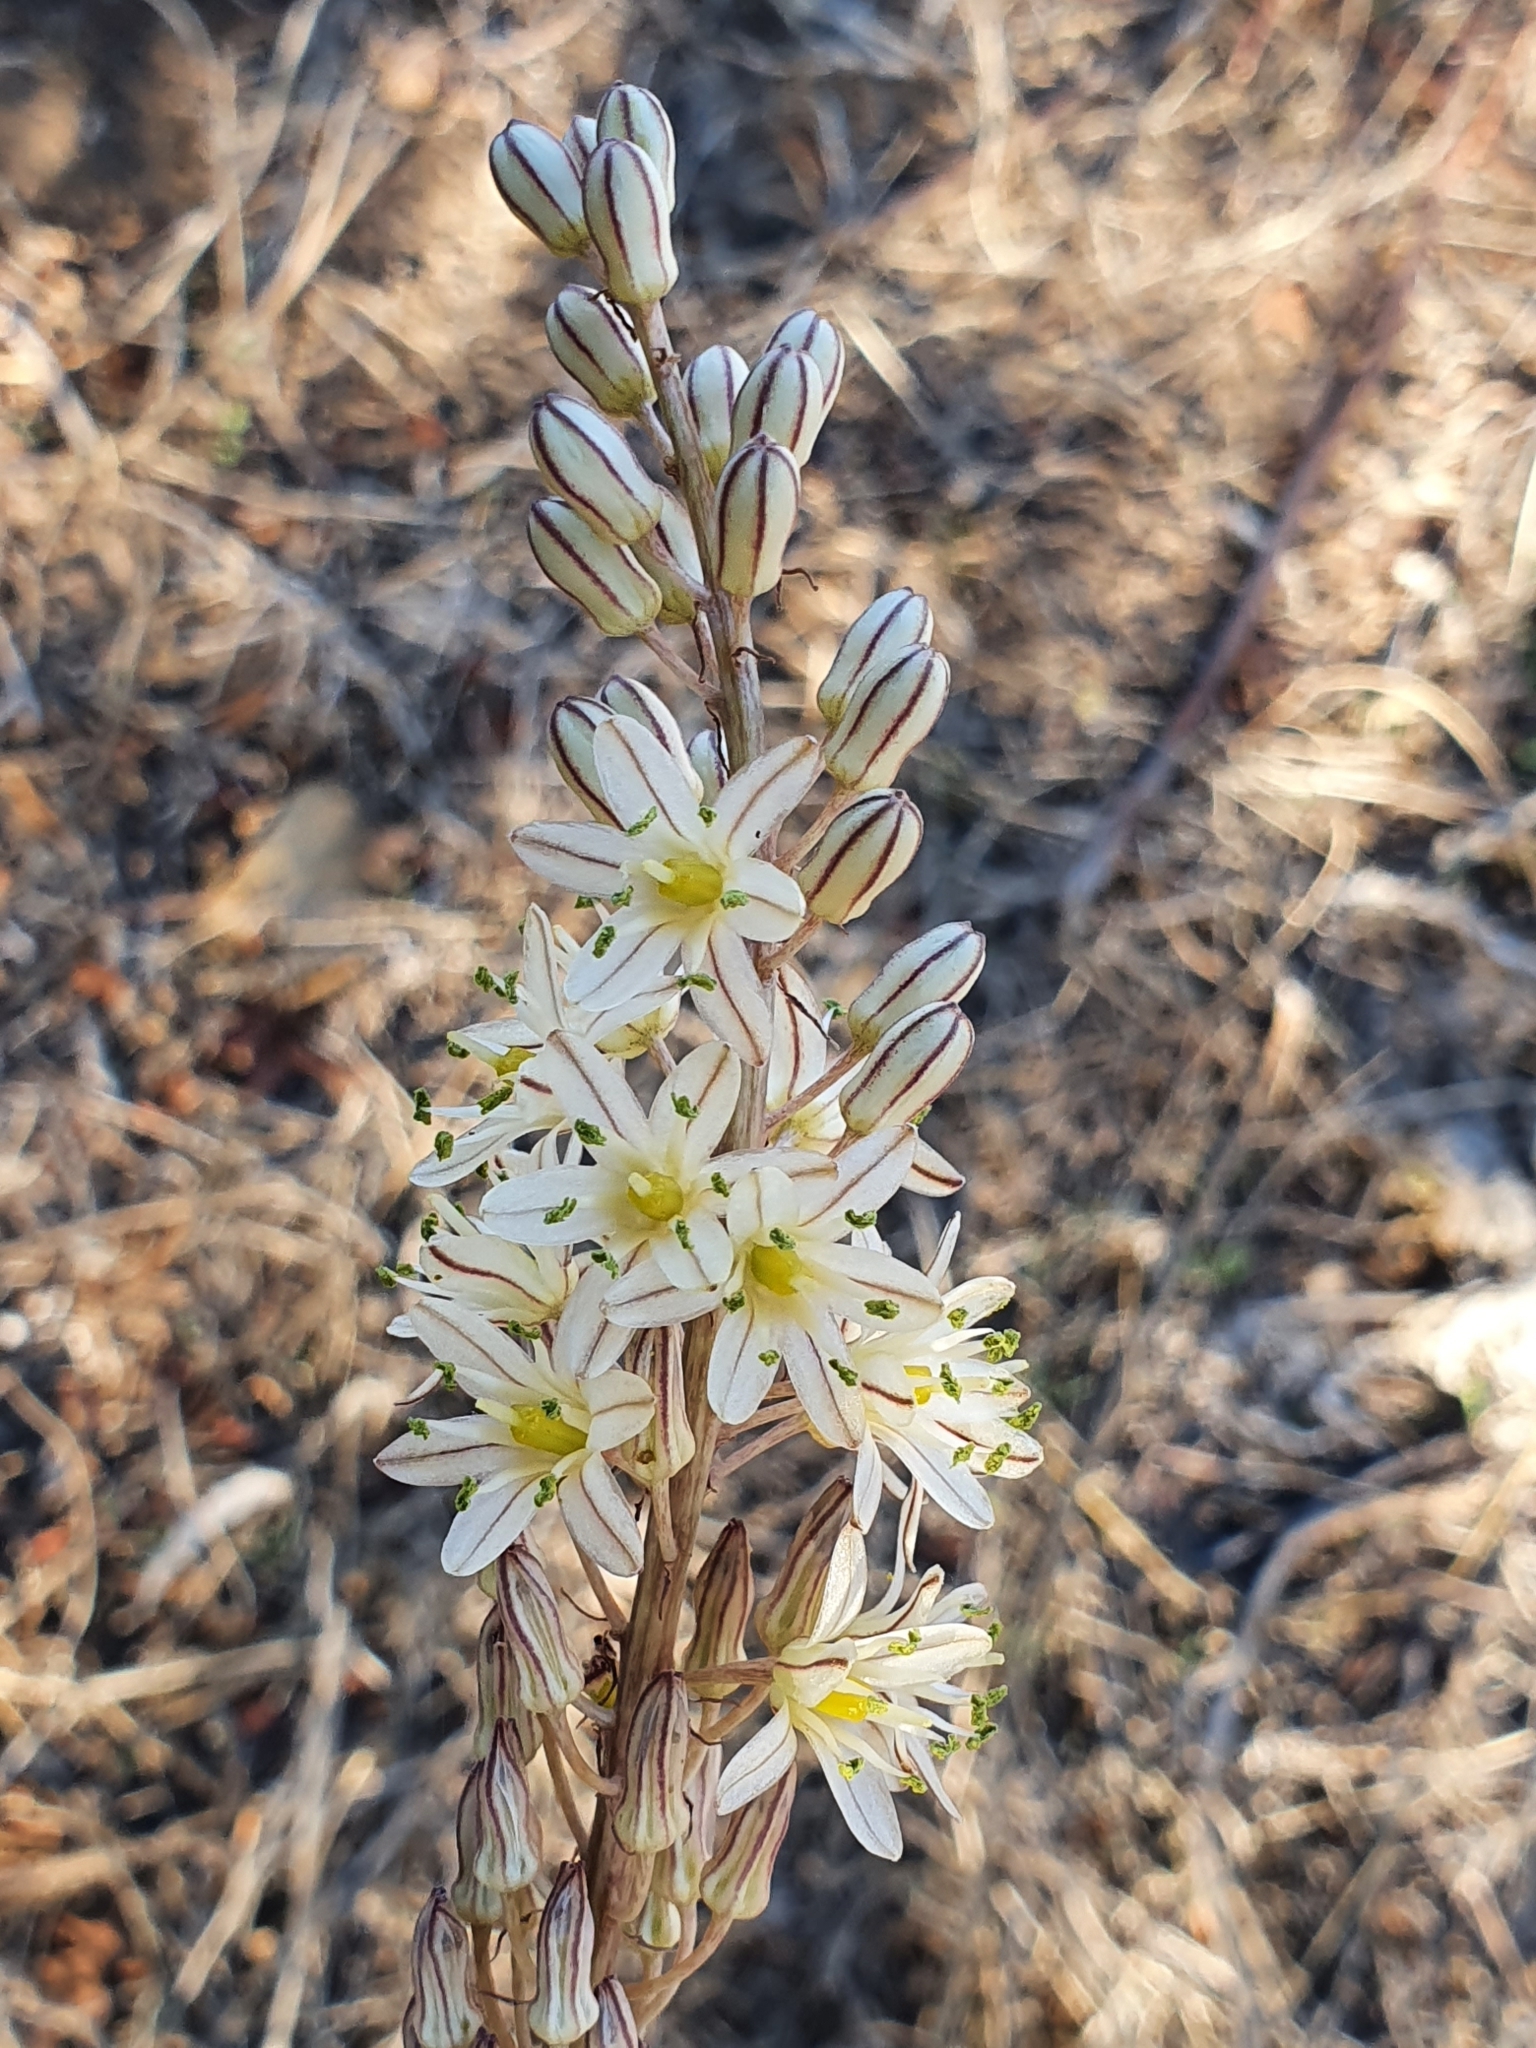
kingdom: Plantae
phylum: Tracheophyta
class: Liliopsida
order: Asparagales
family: Asparagaceae
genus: Drimia
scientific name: Drimia anthericoides
